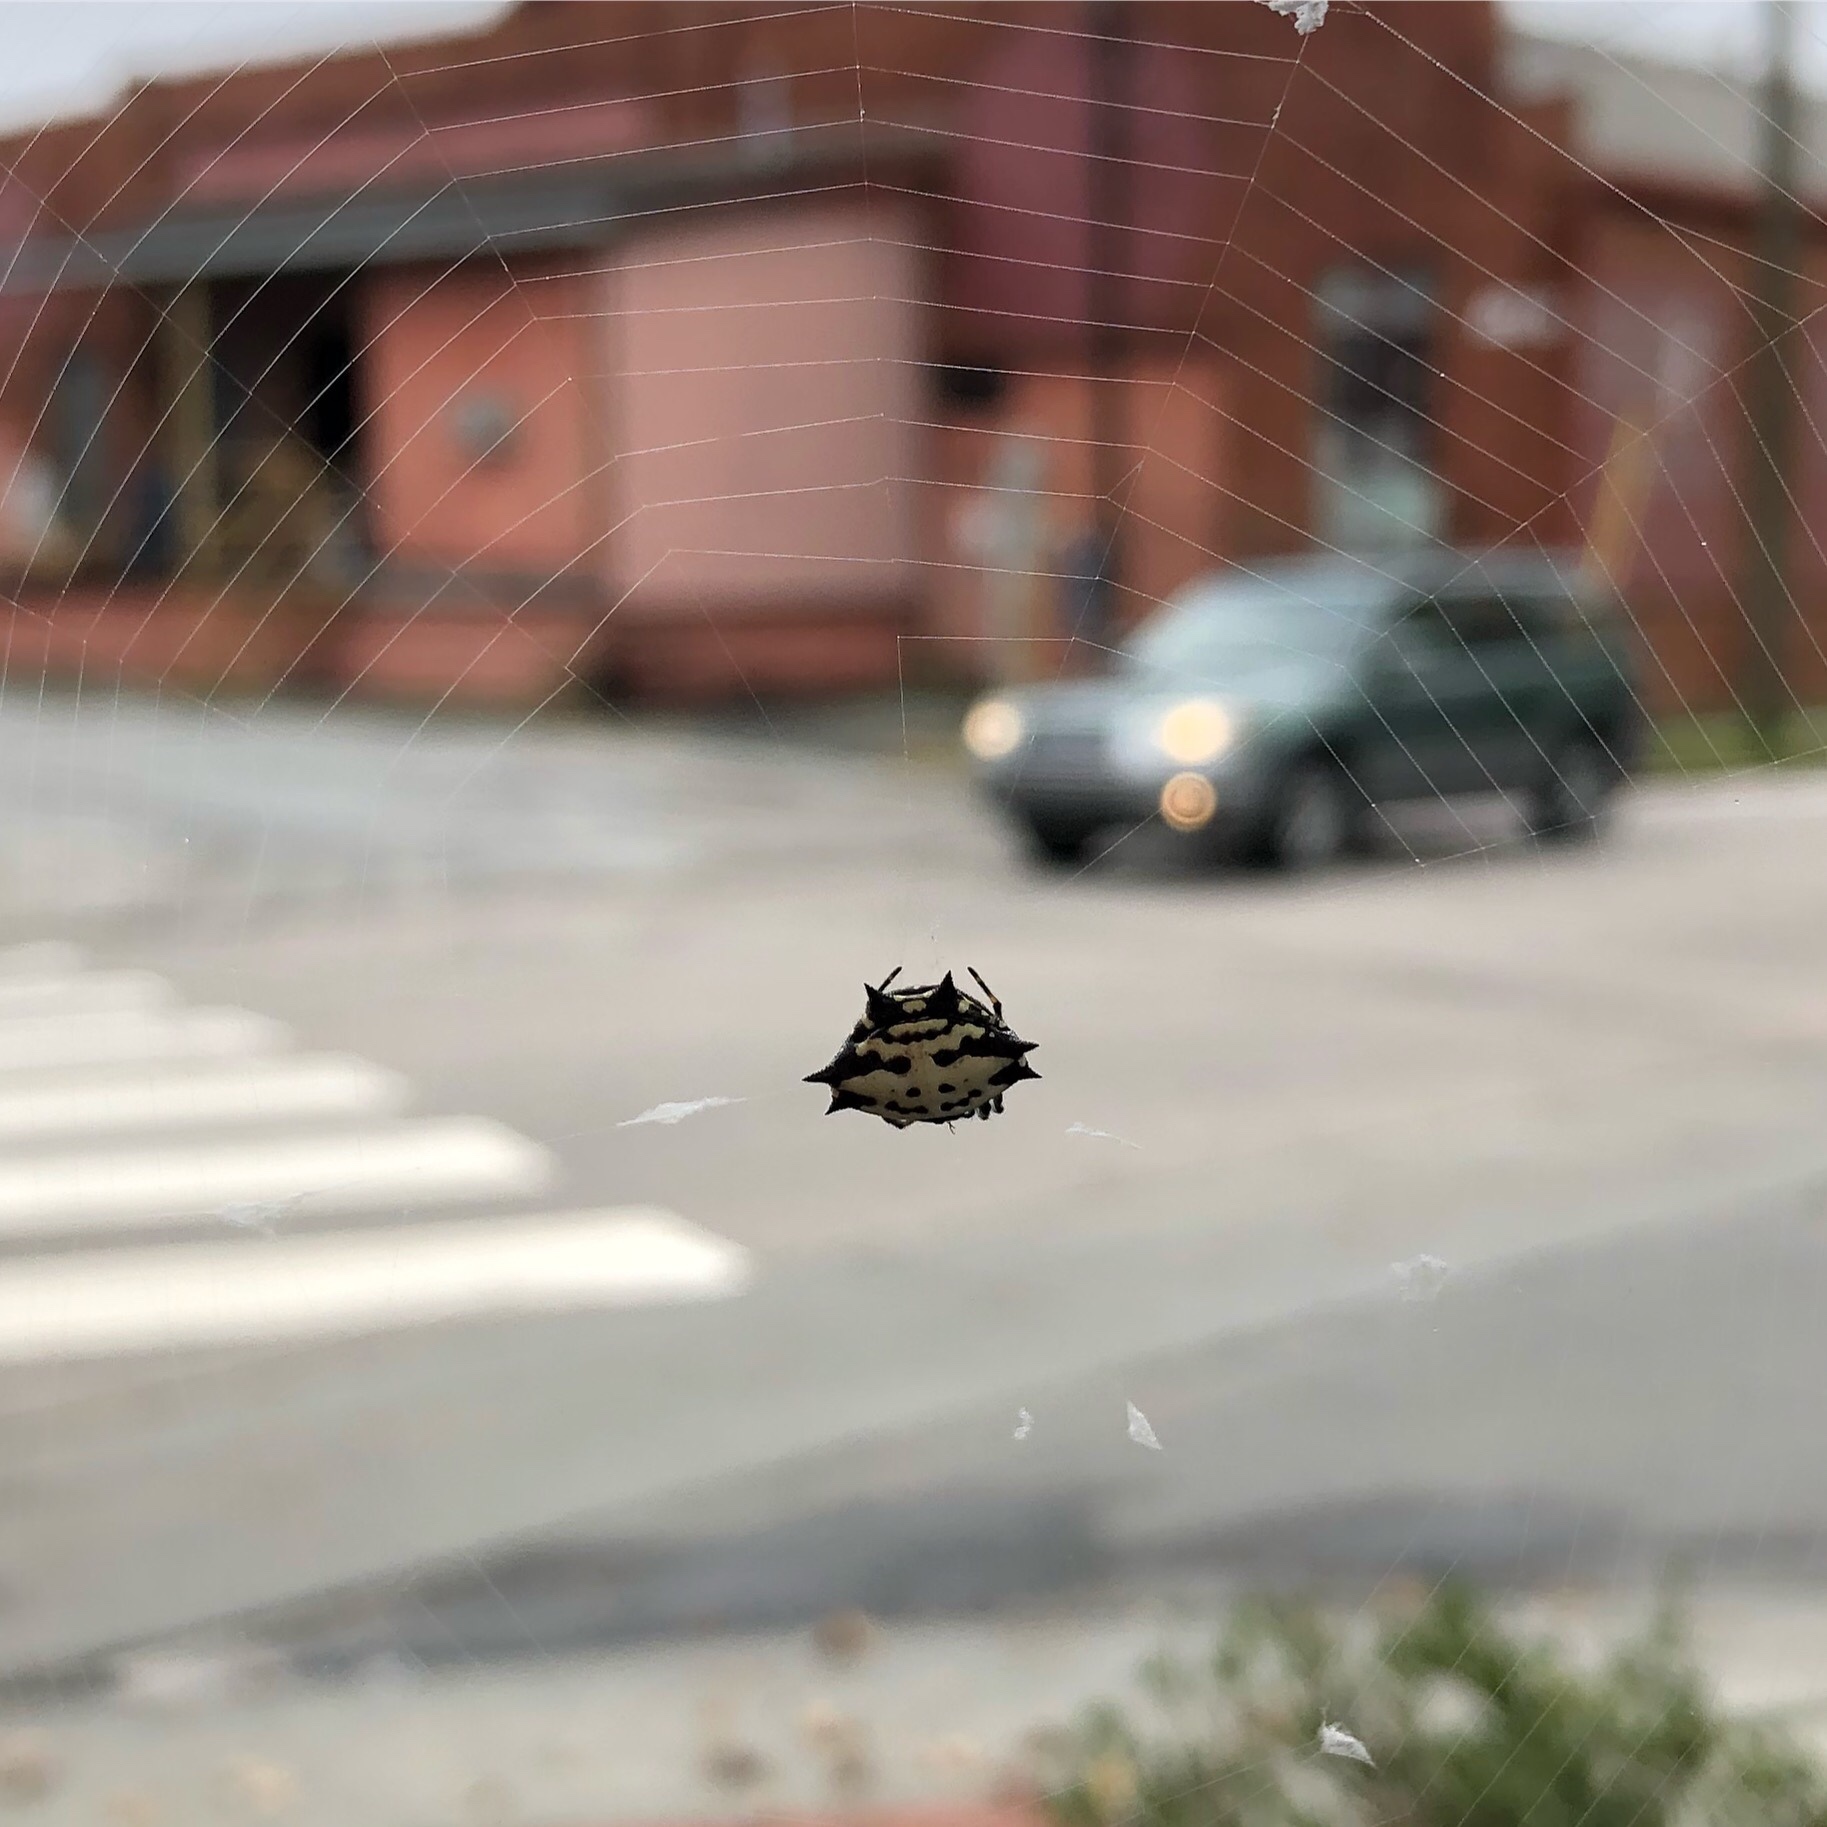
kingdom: Animalia
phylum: Arthropoda
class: Arachnida
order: Araneae
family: Araneidae
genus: Gasteracantha
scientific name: Gasteracantha cancriformis
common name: Orb weavers
